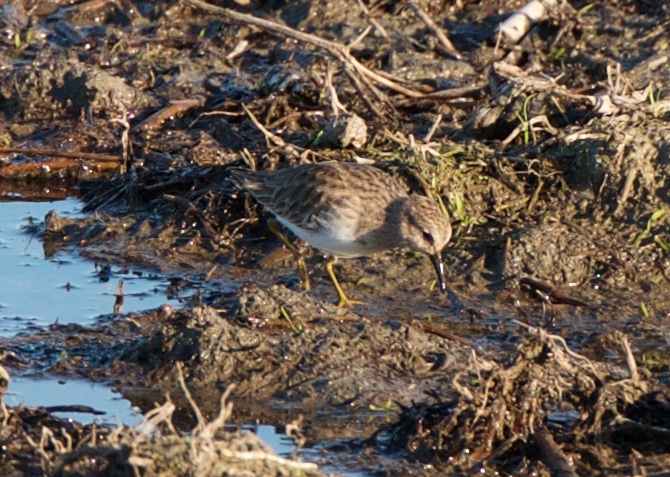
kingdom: Animalia
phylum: Chordata
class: Aves
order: Charadriiformes
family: Scolopacidae
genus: Calidris
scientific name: Calidris minutilla
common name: Least sandpiper
